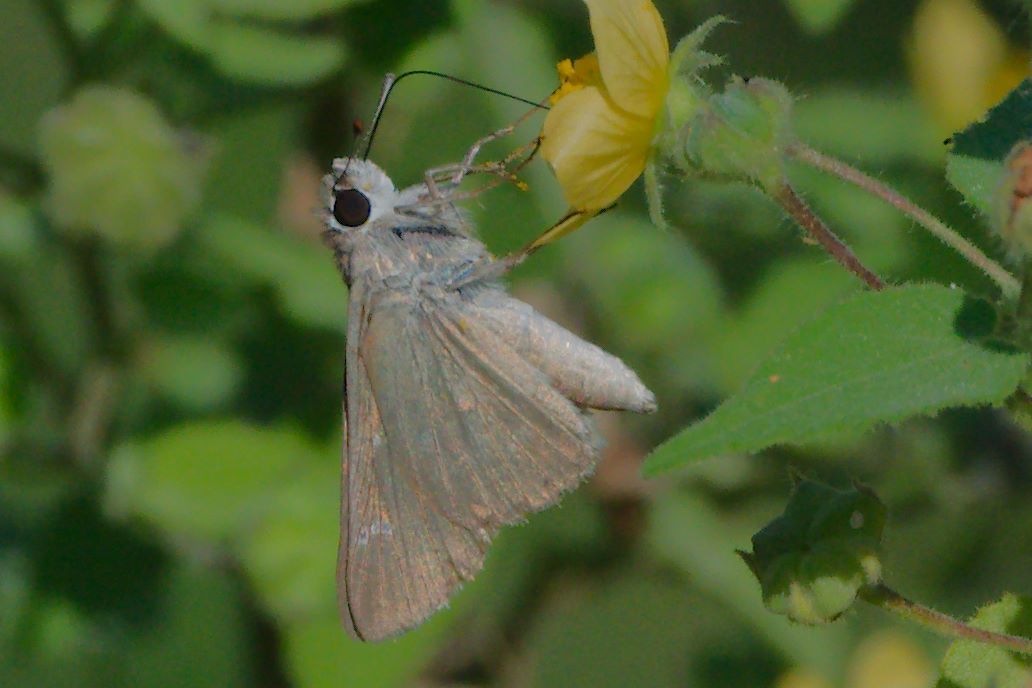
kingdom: Animalia
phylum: Arthropoda
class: Insecta
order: Lepidoptera
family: Hesperiidae
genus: Lerodea
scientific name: Lerodea eufala
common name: Eufala skipper
